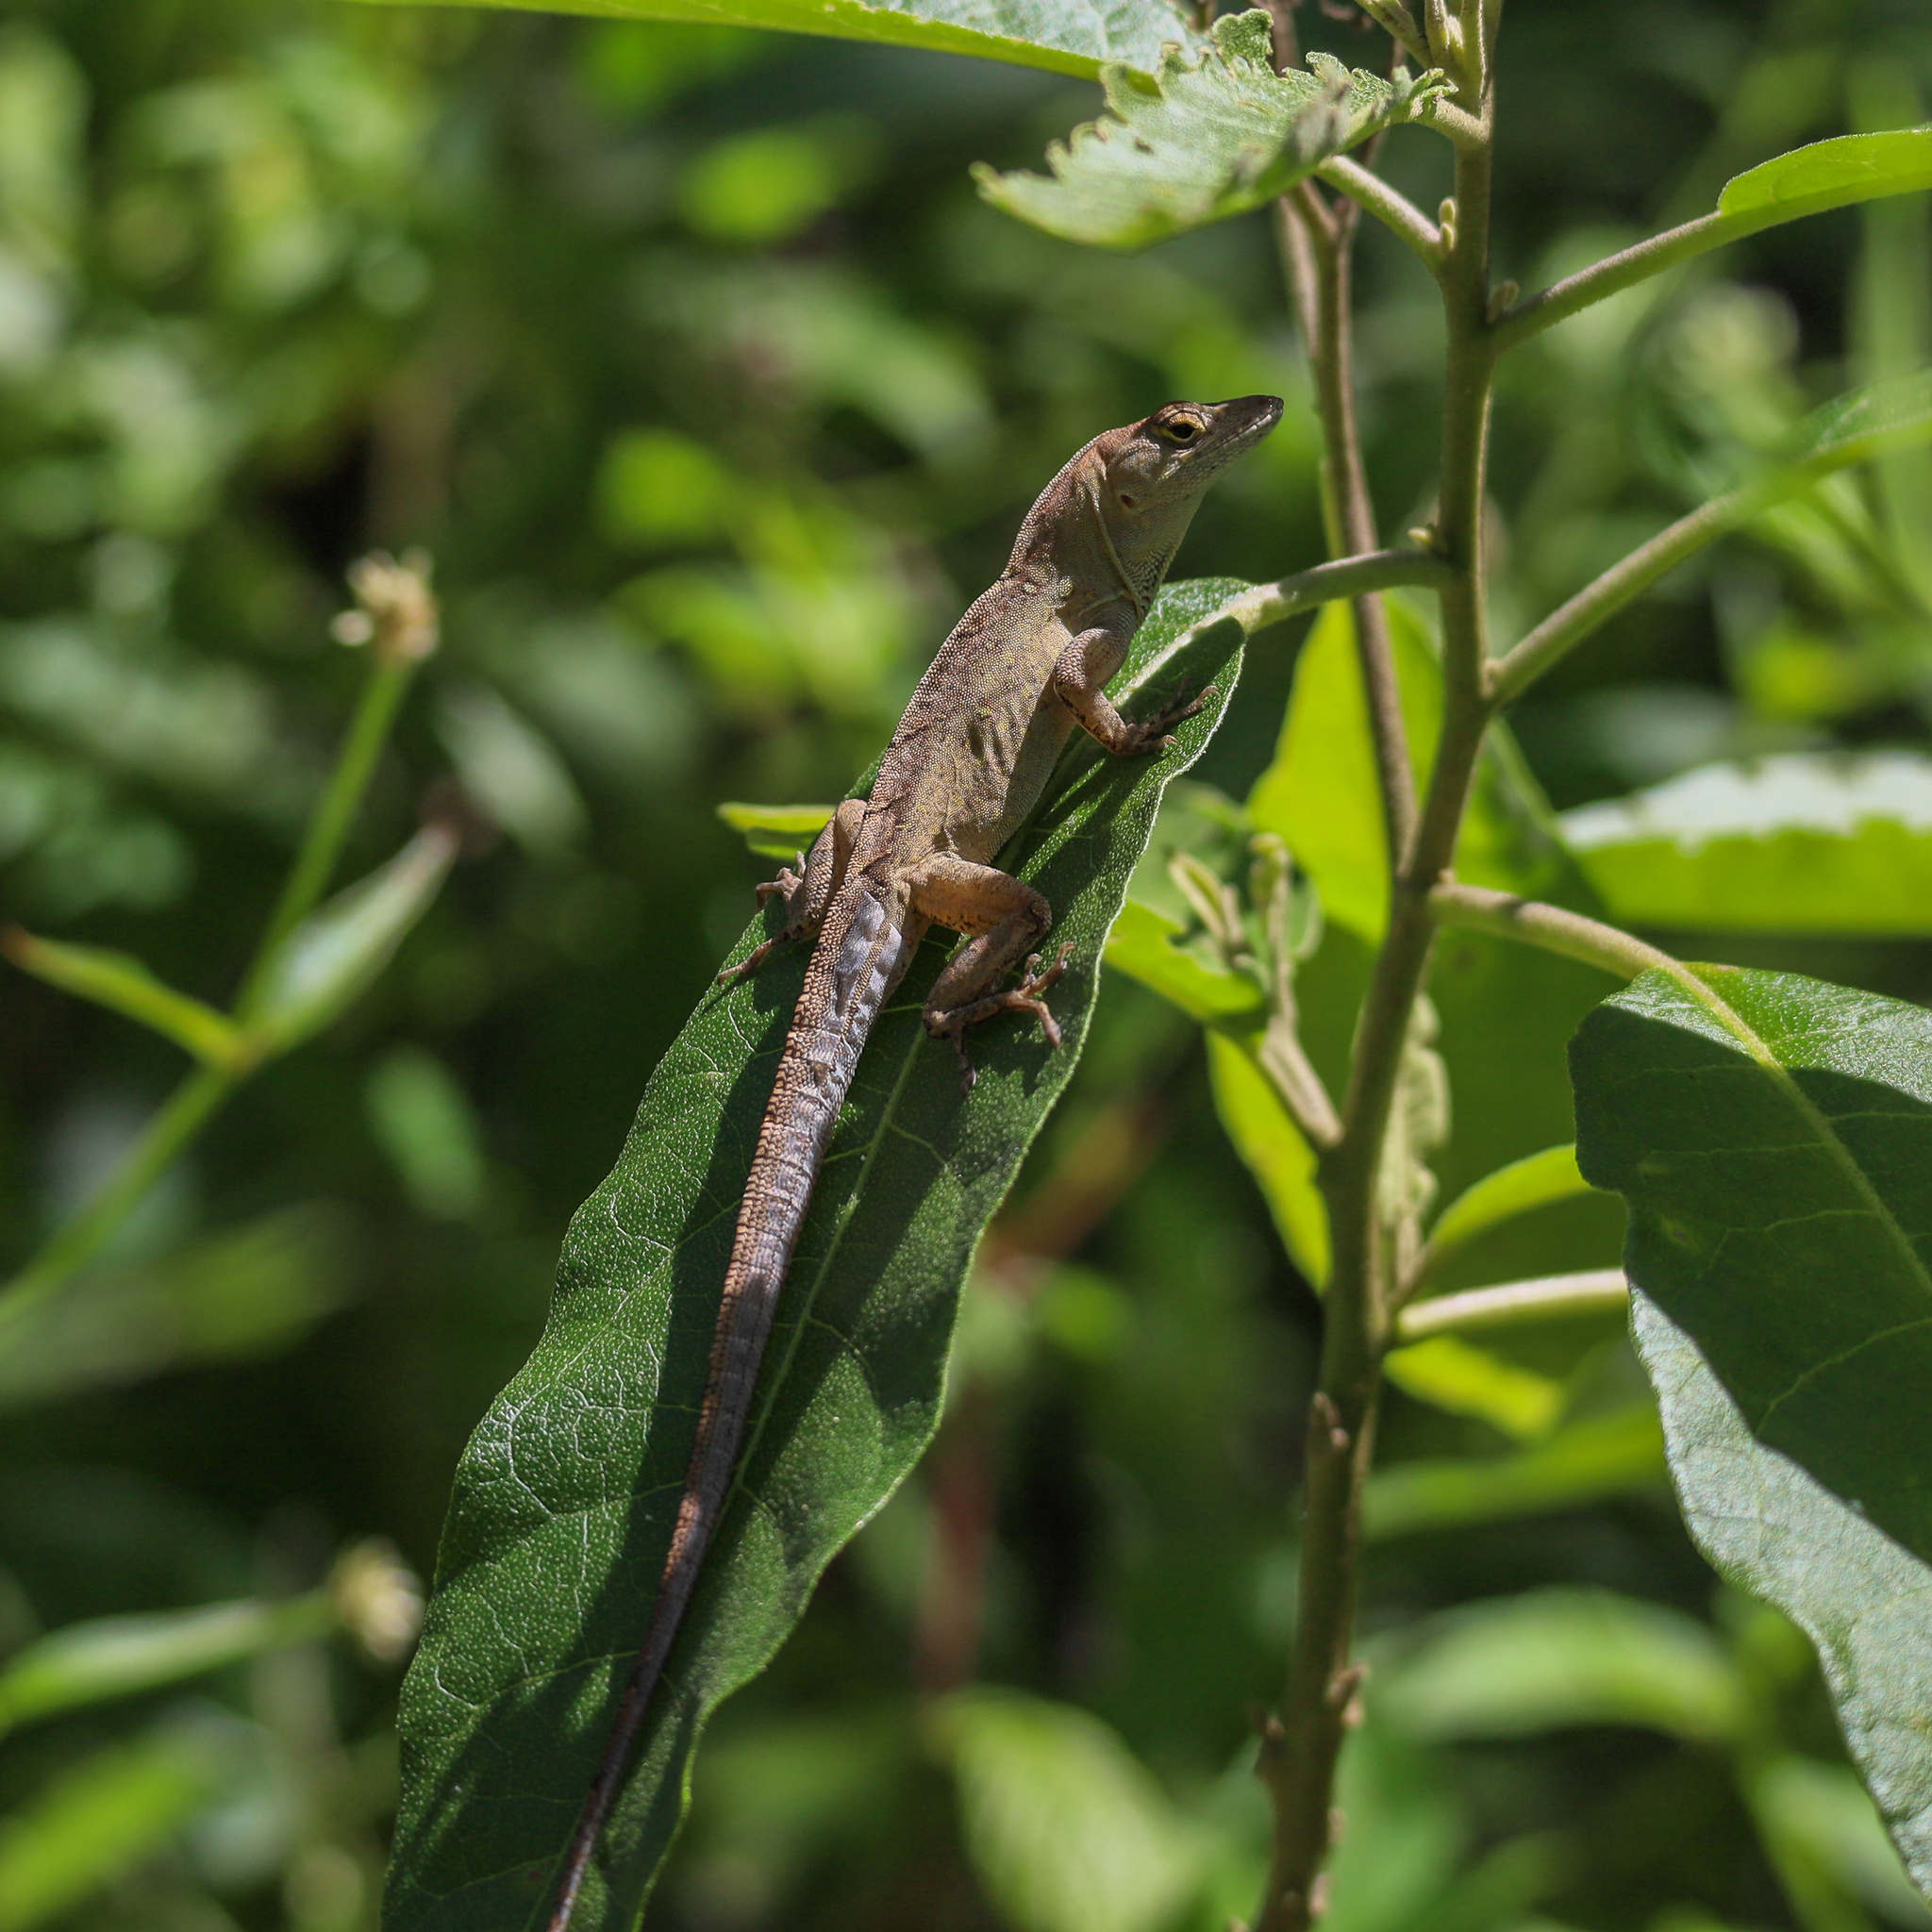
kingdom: Animalia
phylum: Chordata
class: Squamata
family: Dactyloidae
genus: Anolis
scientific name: Anolis sagrei
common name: Brown anole
